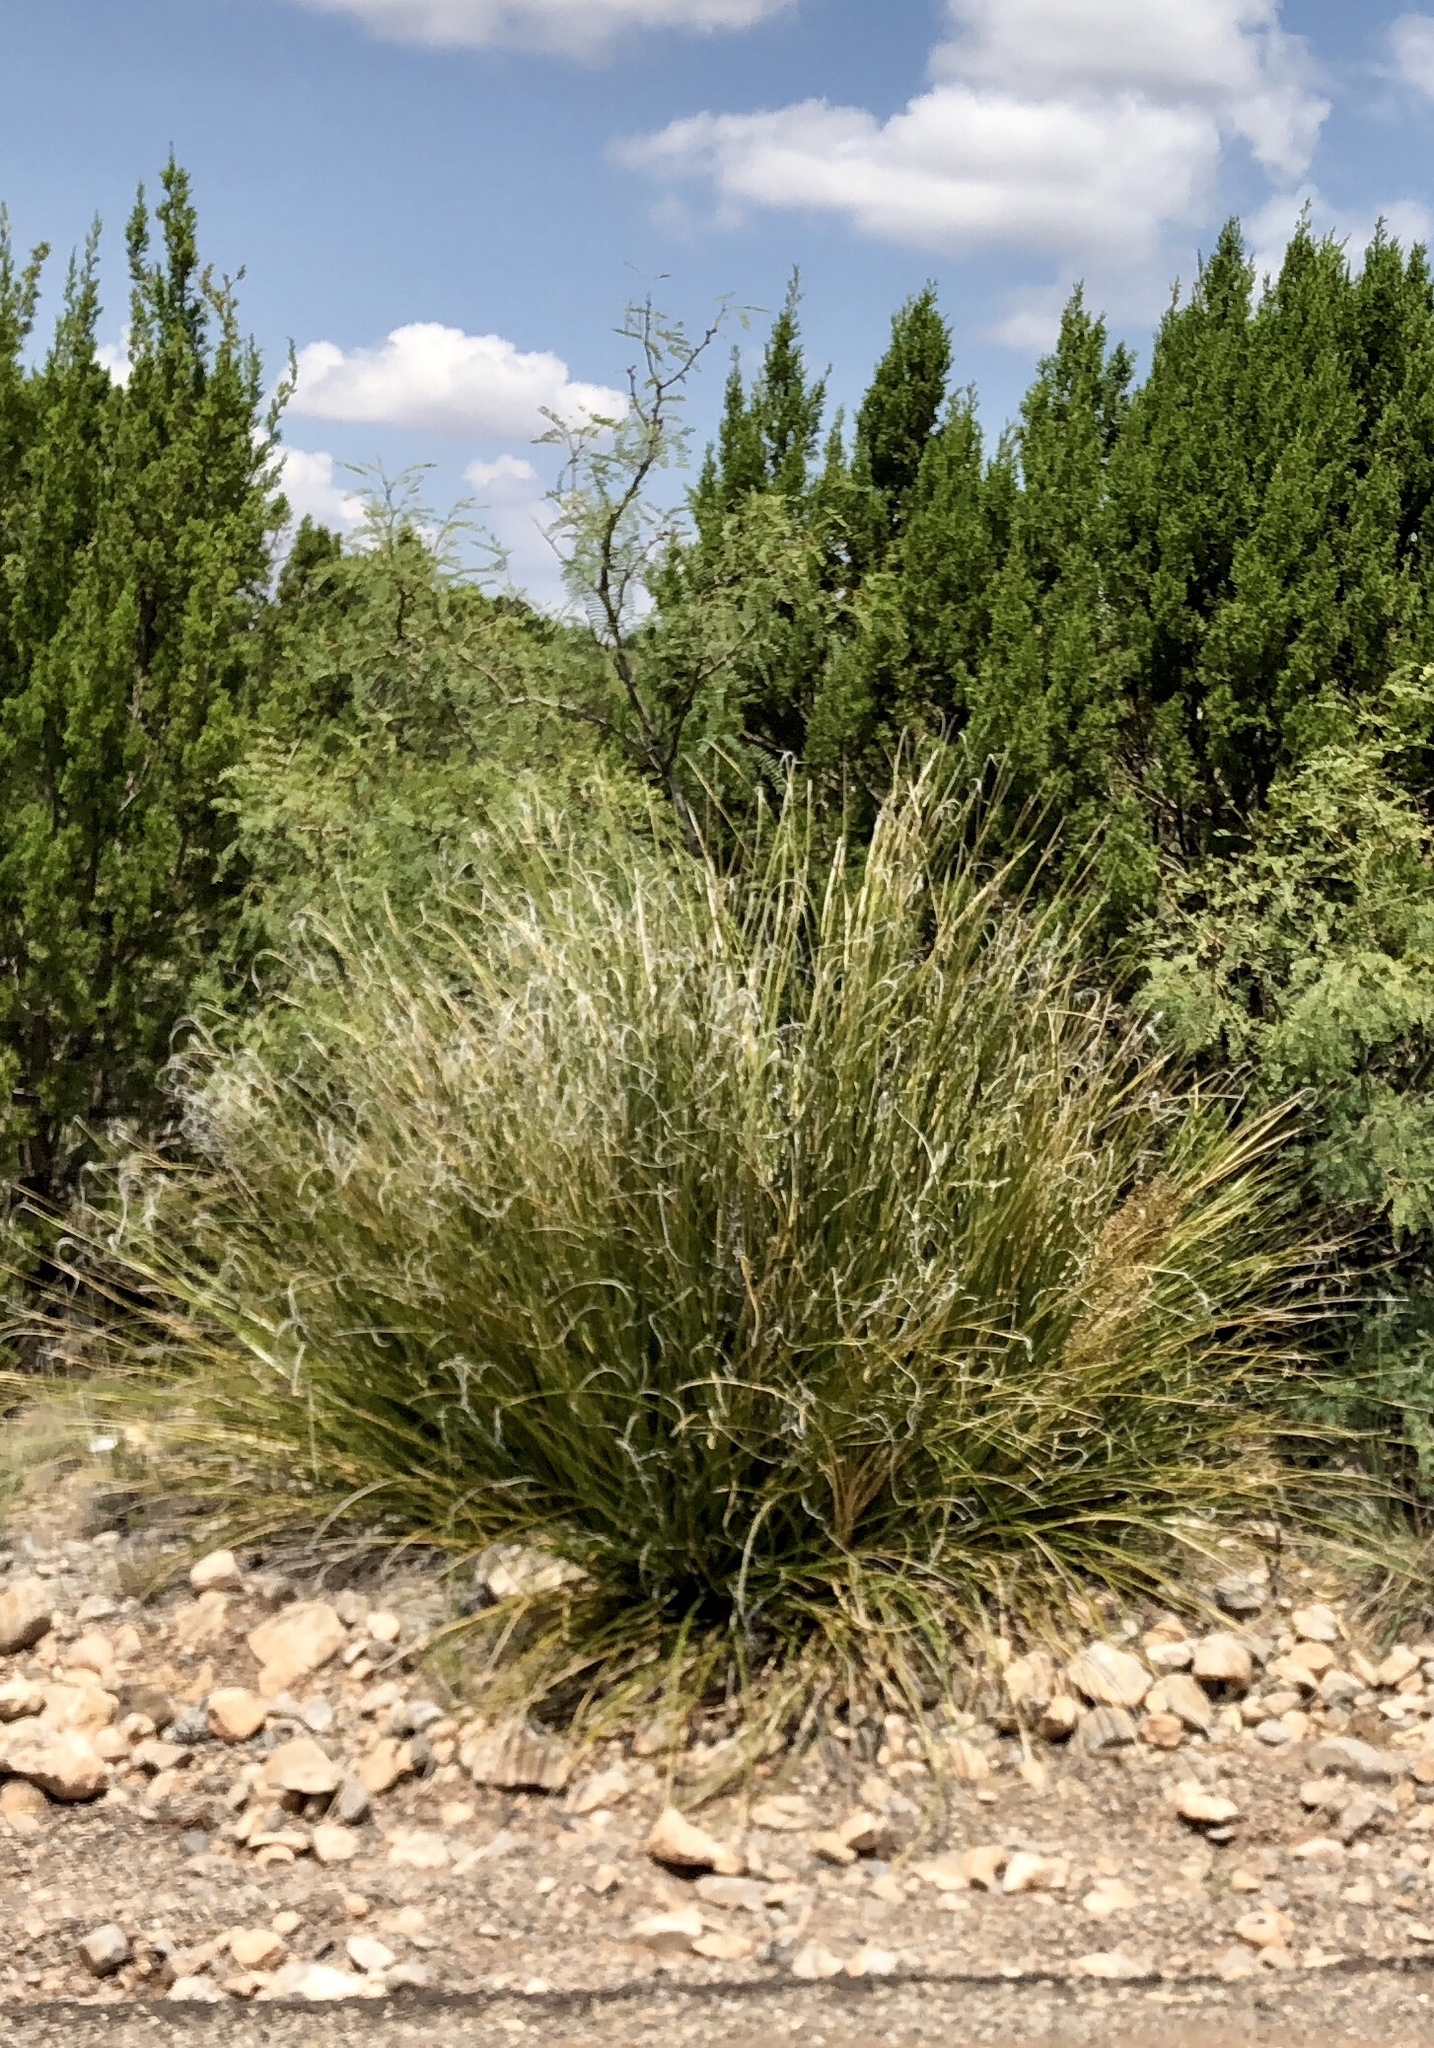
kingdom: Plantae
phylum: Tracheophyta
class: Liliopsida
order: Asparagales
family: Asparagaceae
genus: Nolina
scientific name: Nolina microcarpa
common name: Bear-grass
